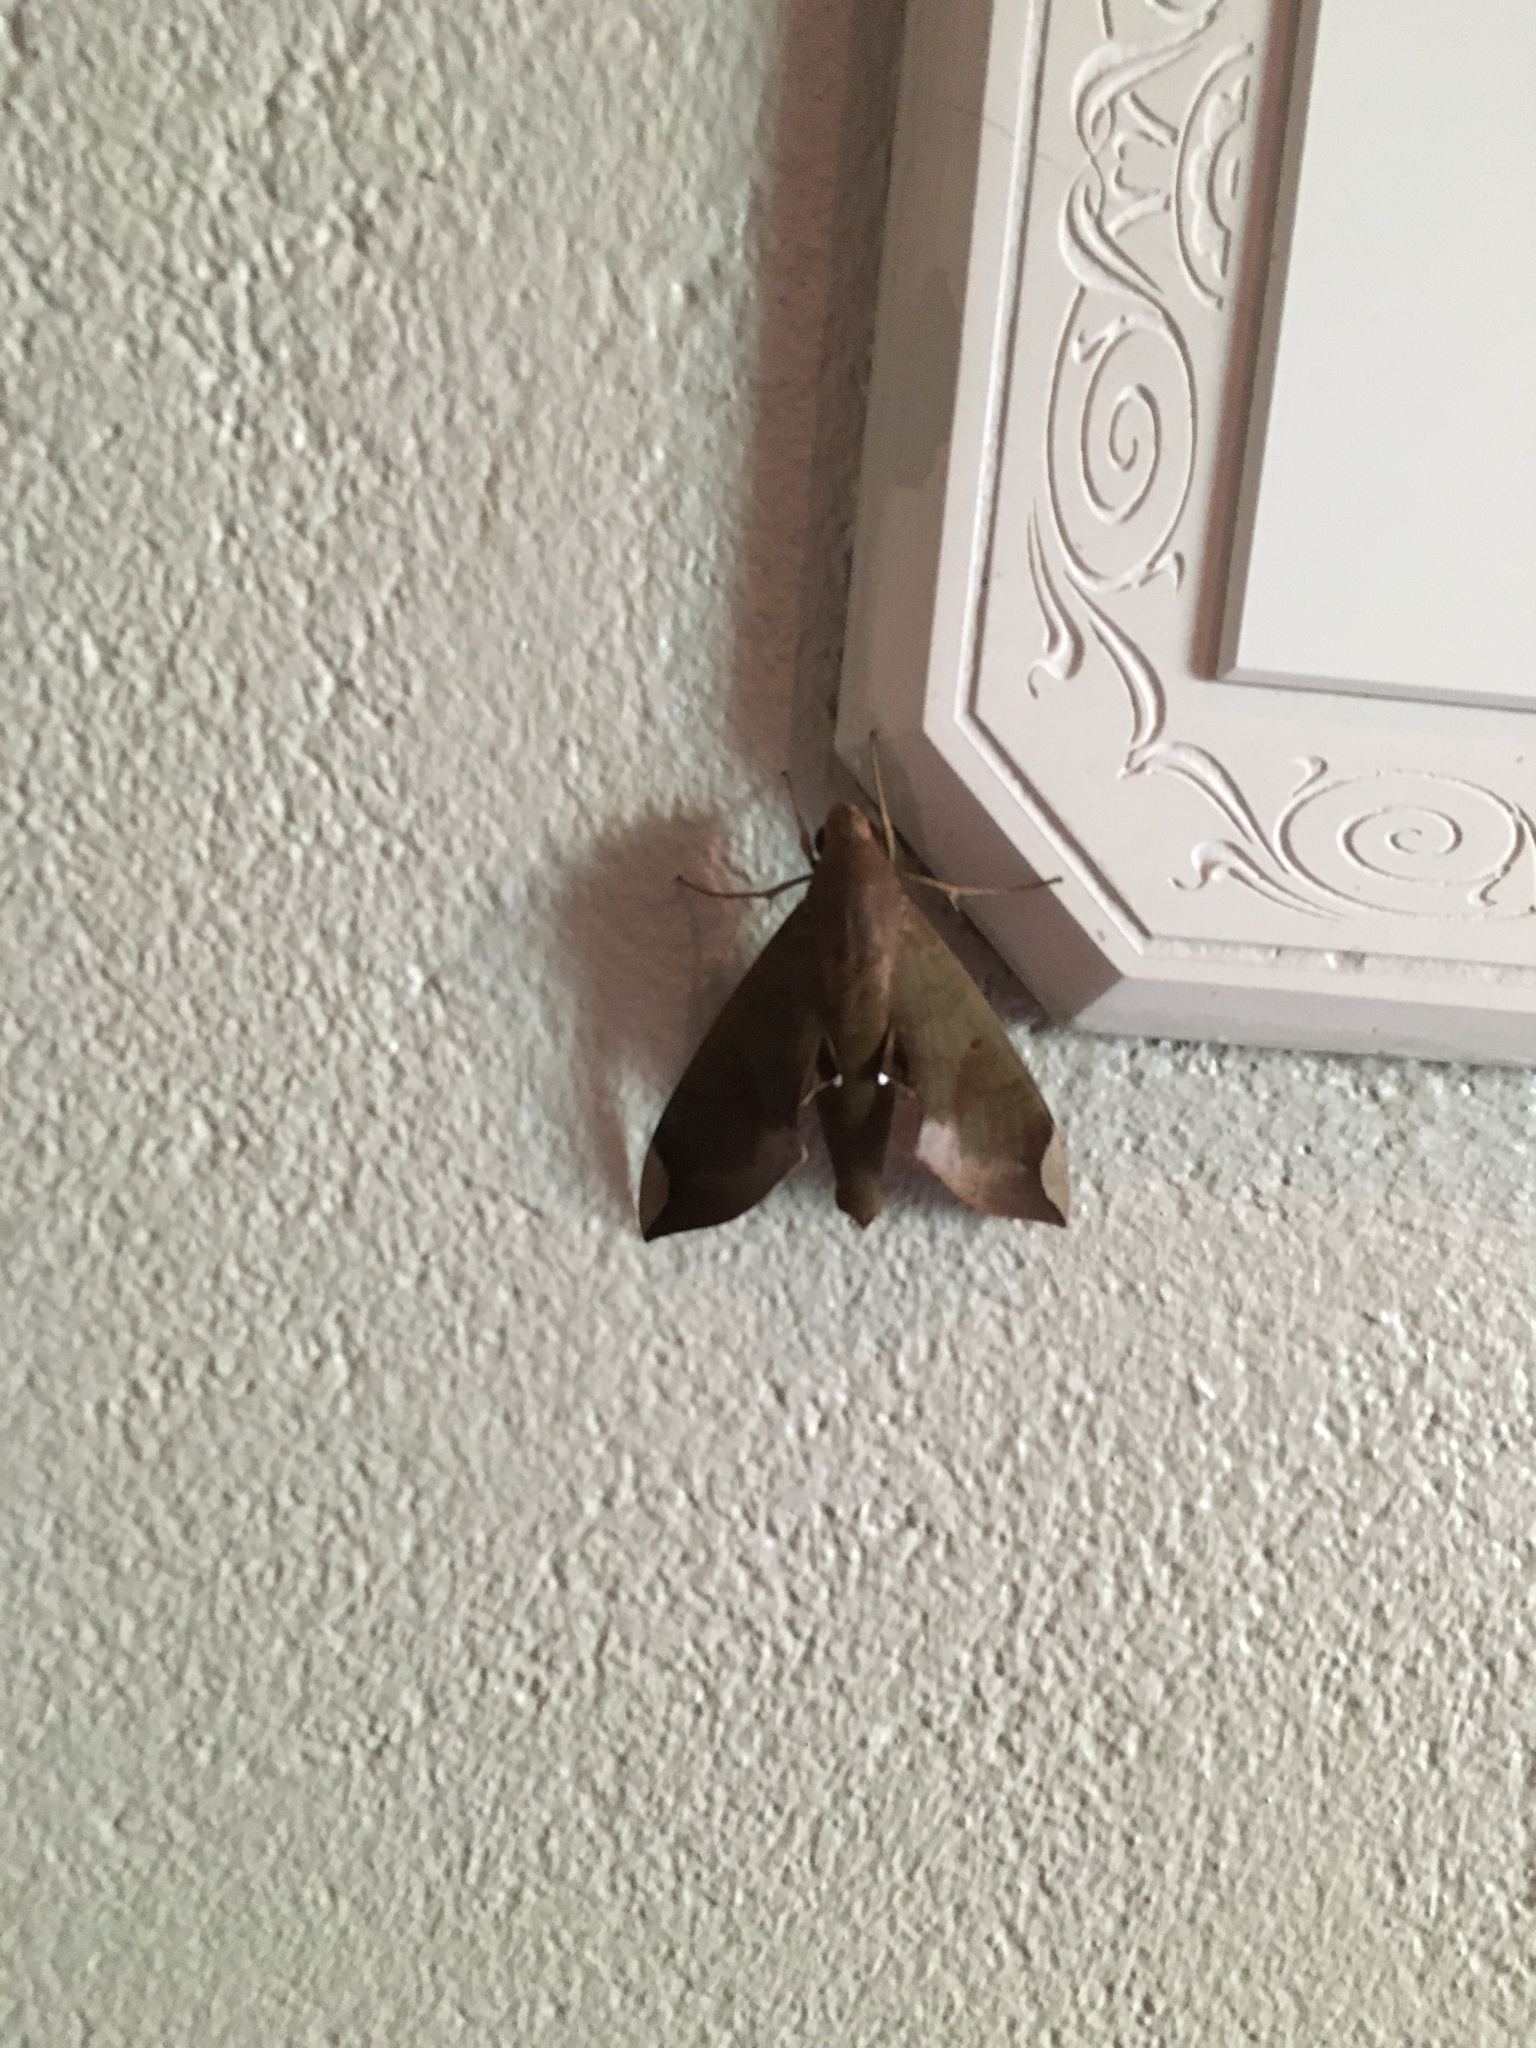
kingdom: Animalia
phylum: Arthropoda
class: Insecta
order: Lepidoptera
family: Sphingidae
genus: Pachylia
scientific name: Pachylia ficus
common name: Fig sphinx
